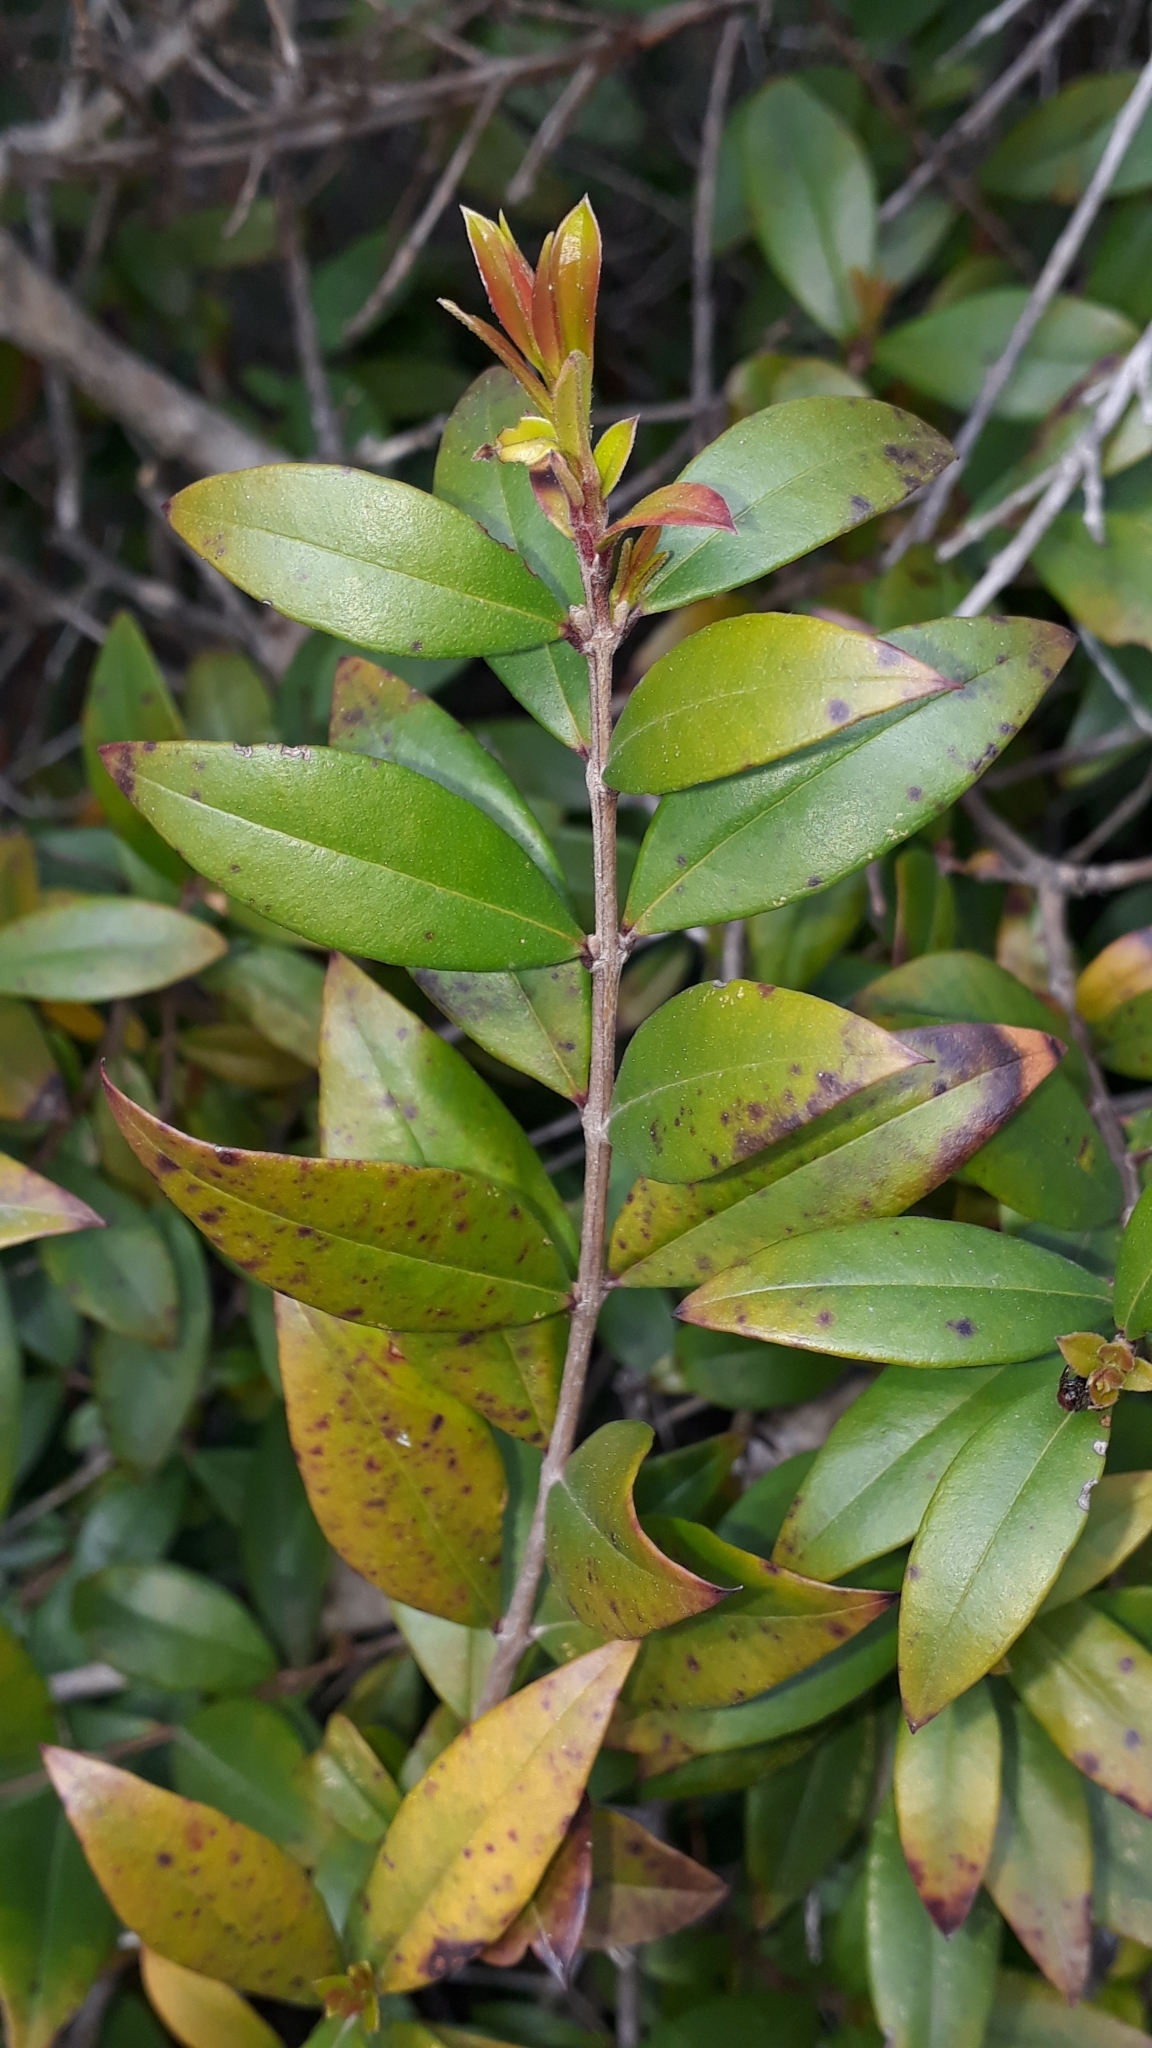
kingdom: Plantae
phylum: Tracheophyta
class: Magnoliopsida
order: Myrtales
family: Myrtaceae
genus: Myrtus
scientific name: Myrtus communis
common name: Myrtle
